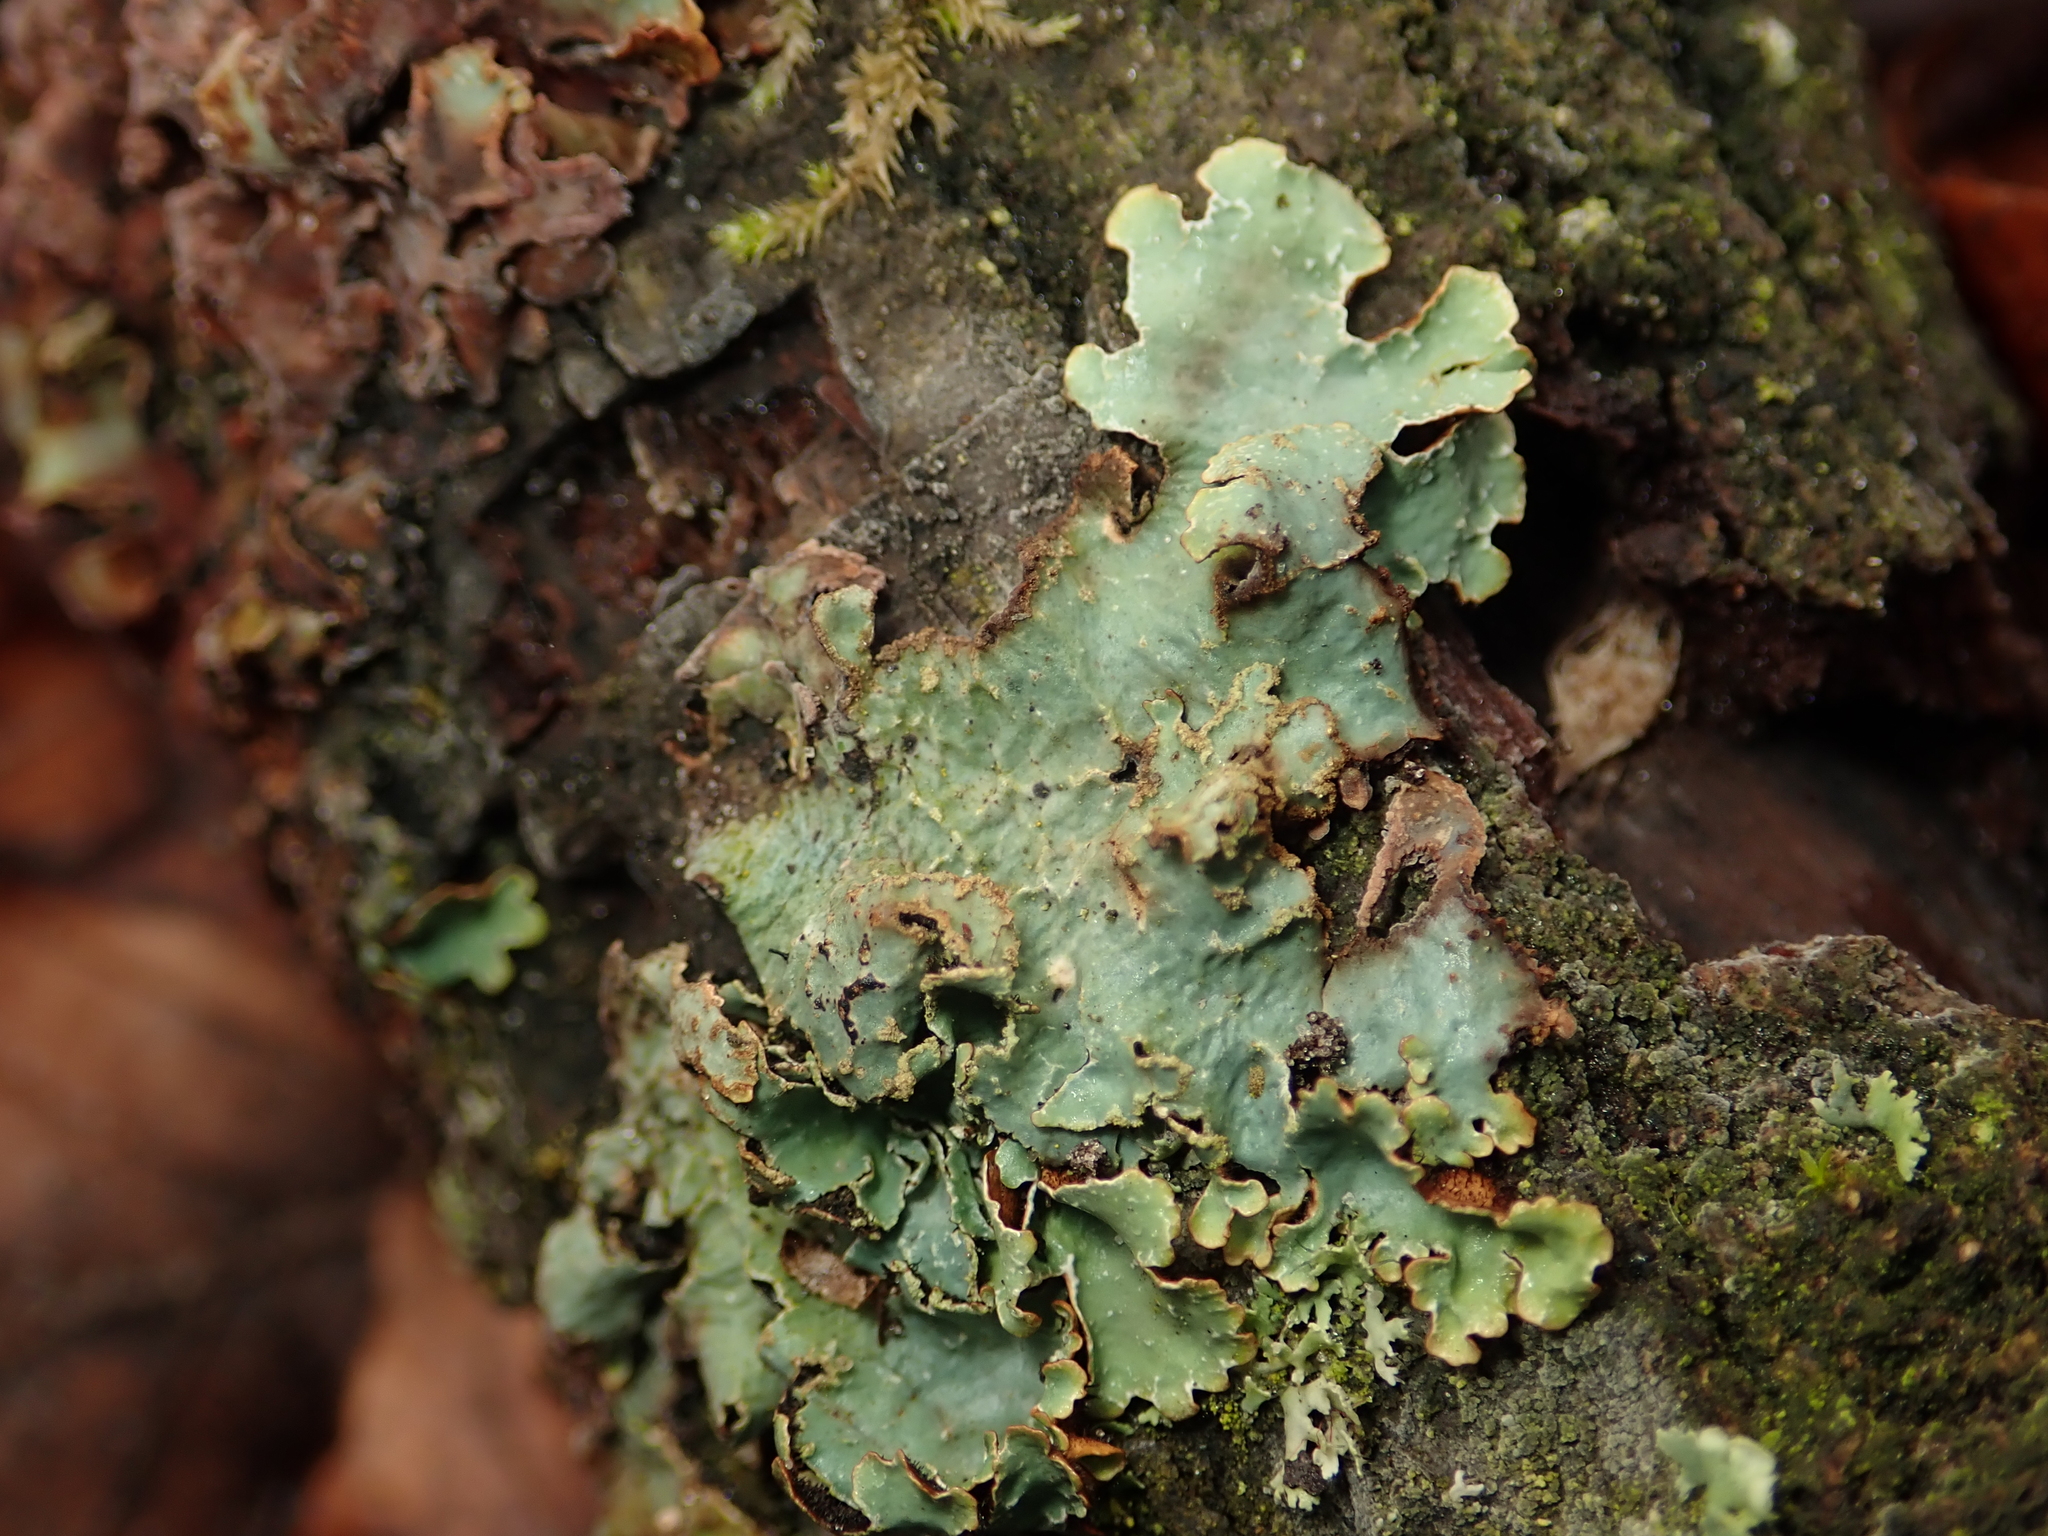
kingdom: Fungi
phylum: Ascomycota
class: Lecanoromycetes
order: Lecanorales
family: Parmeliaceae
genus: Parmelia
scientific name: Parmelia sulcata
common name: Netted shield lichen
